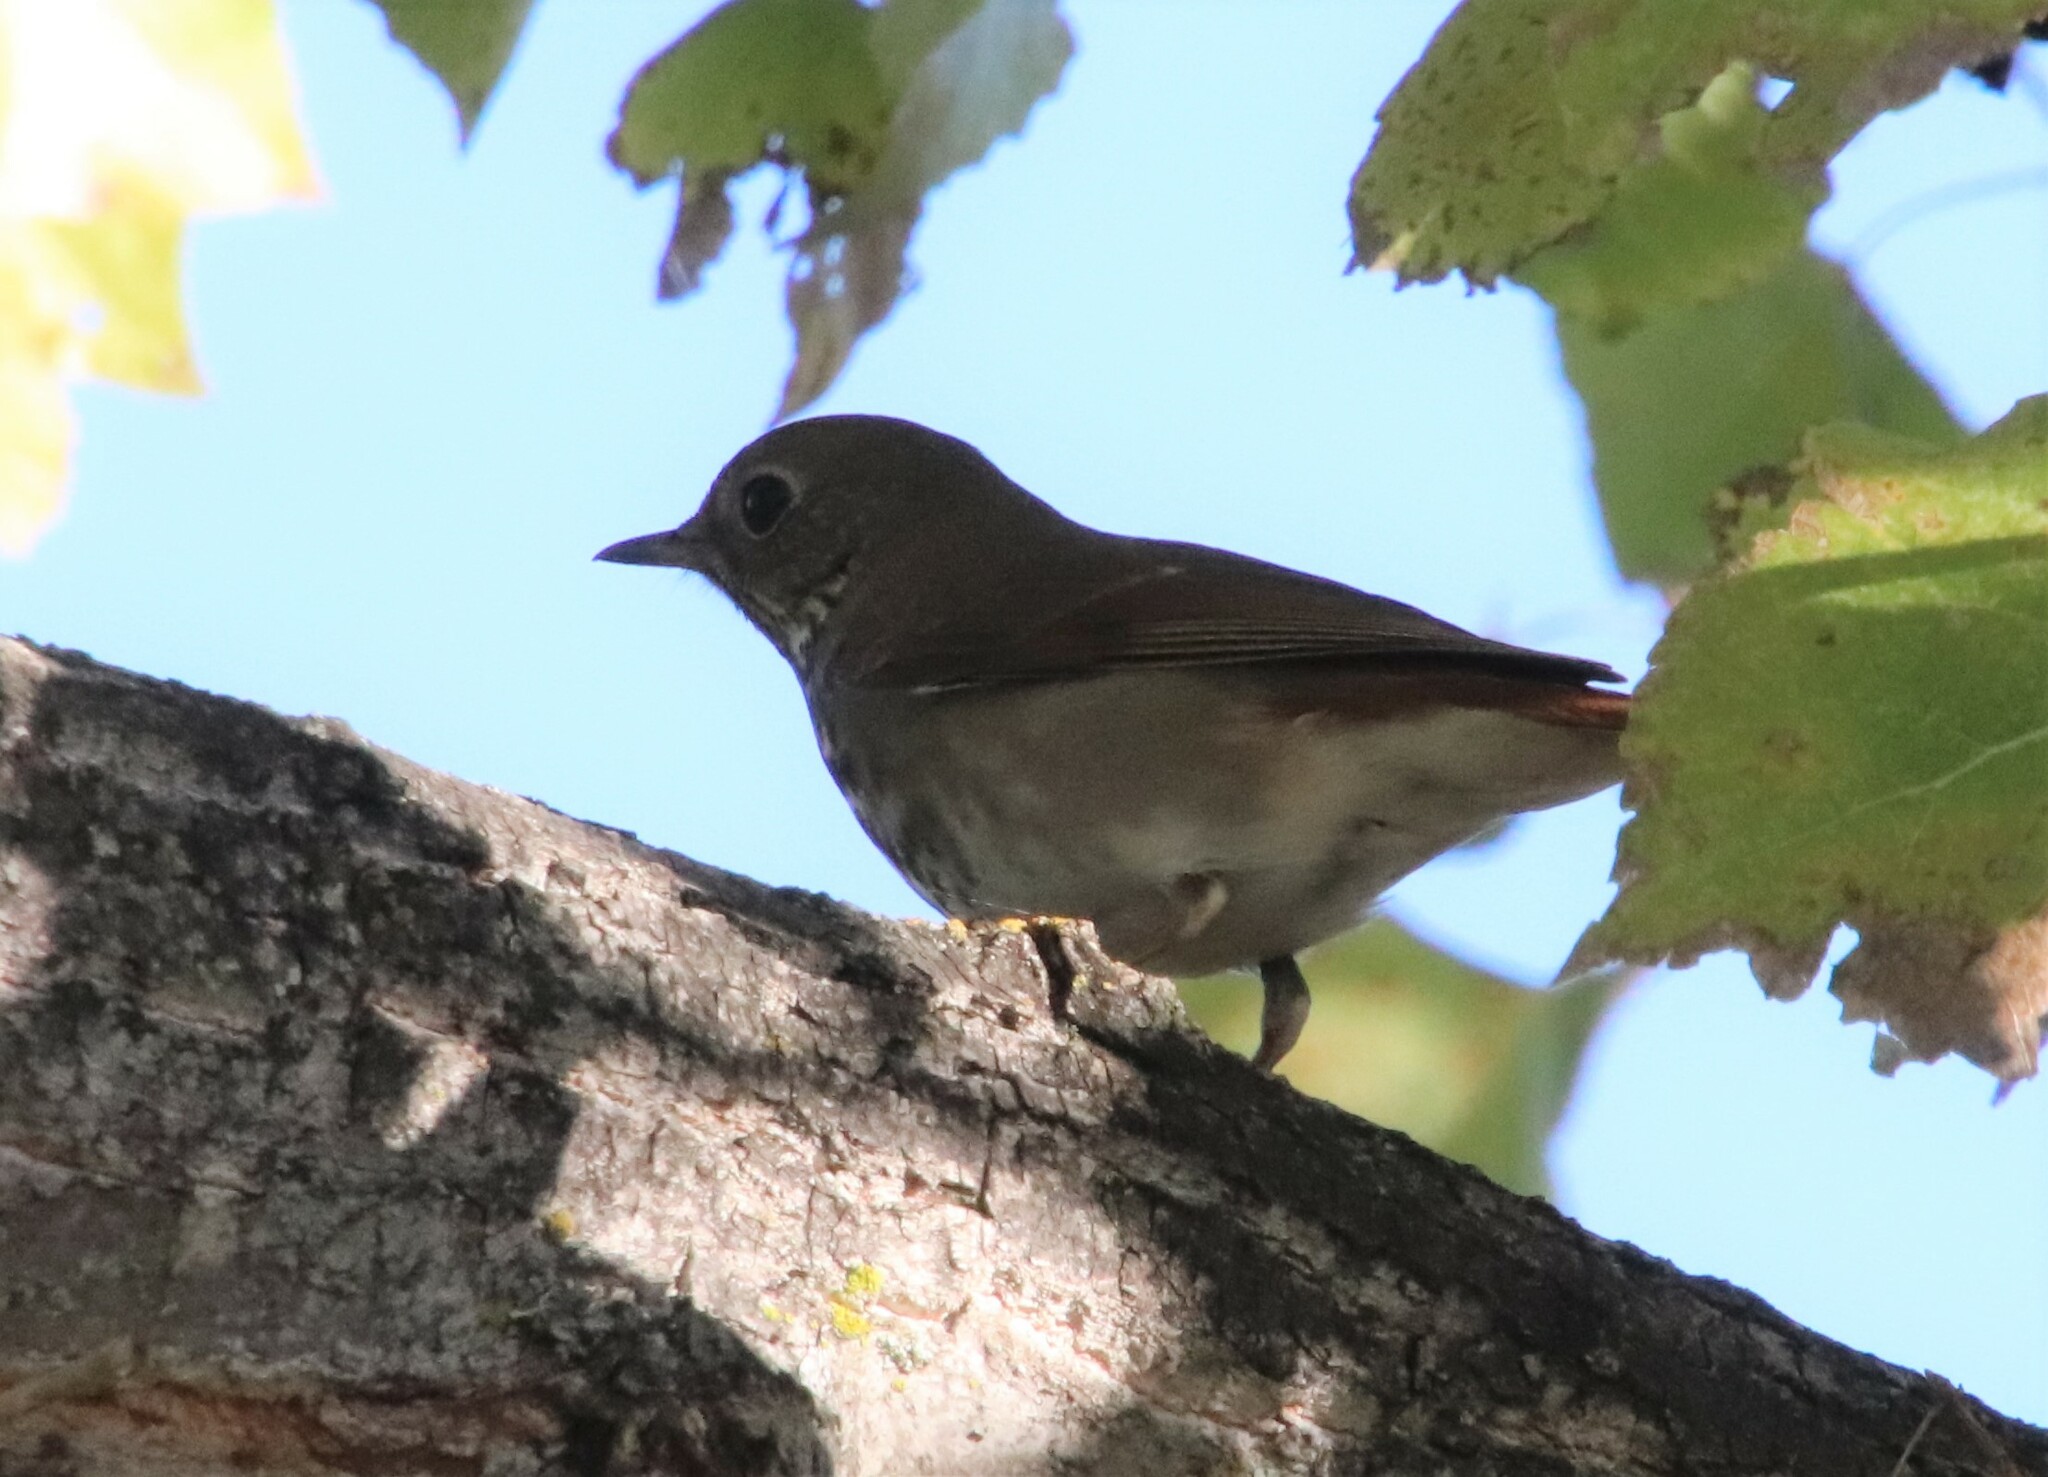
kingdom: Animalia
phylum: Chordata
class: Aves
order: Passeriformes
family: Turdidae
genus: Catharus
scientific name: Catharus guttatus
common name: Hermit thrush
